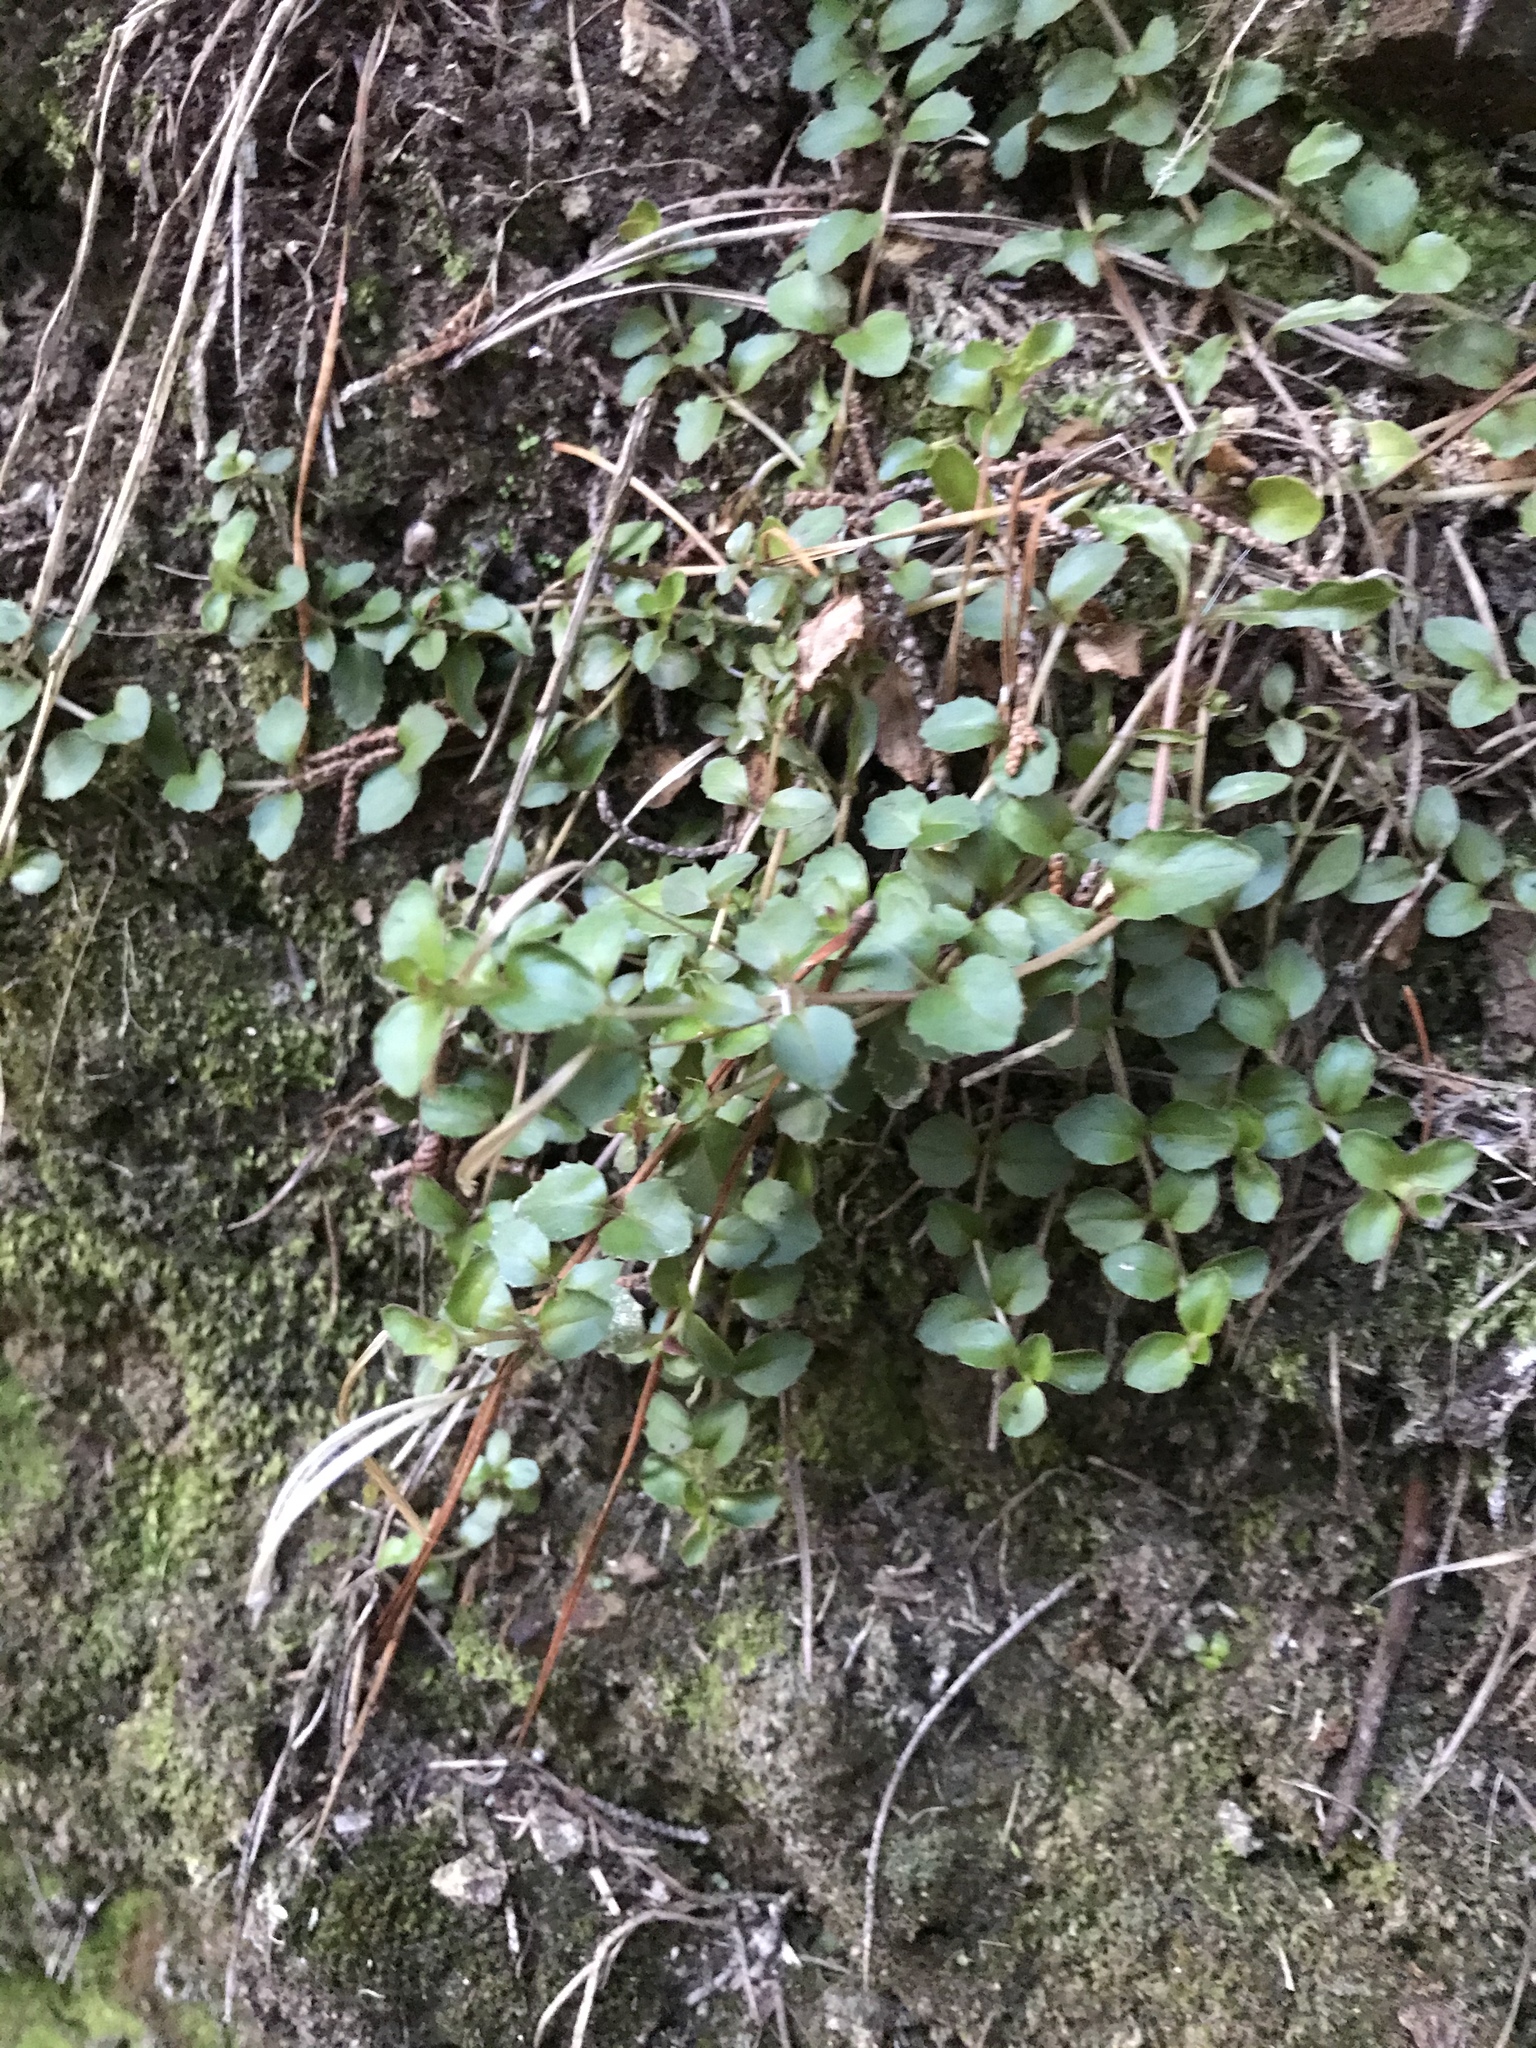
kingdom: Plantae
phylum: Tracheophyta
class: Magnoliopsida
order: Myrtales
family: Onagraceae
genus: Epilobium
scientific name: Epilobium rotundifolium
